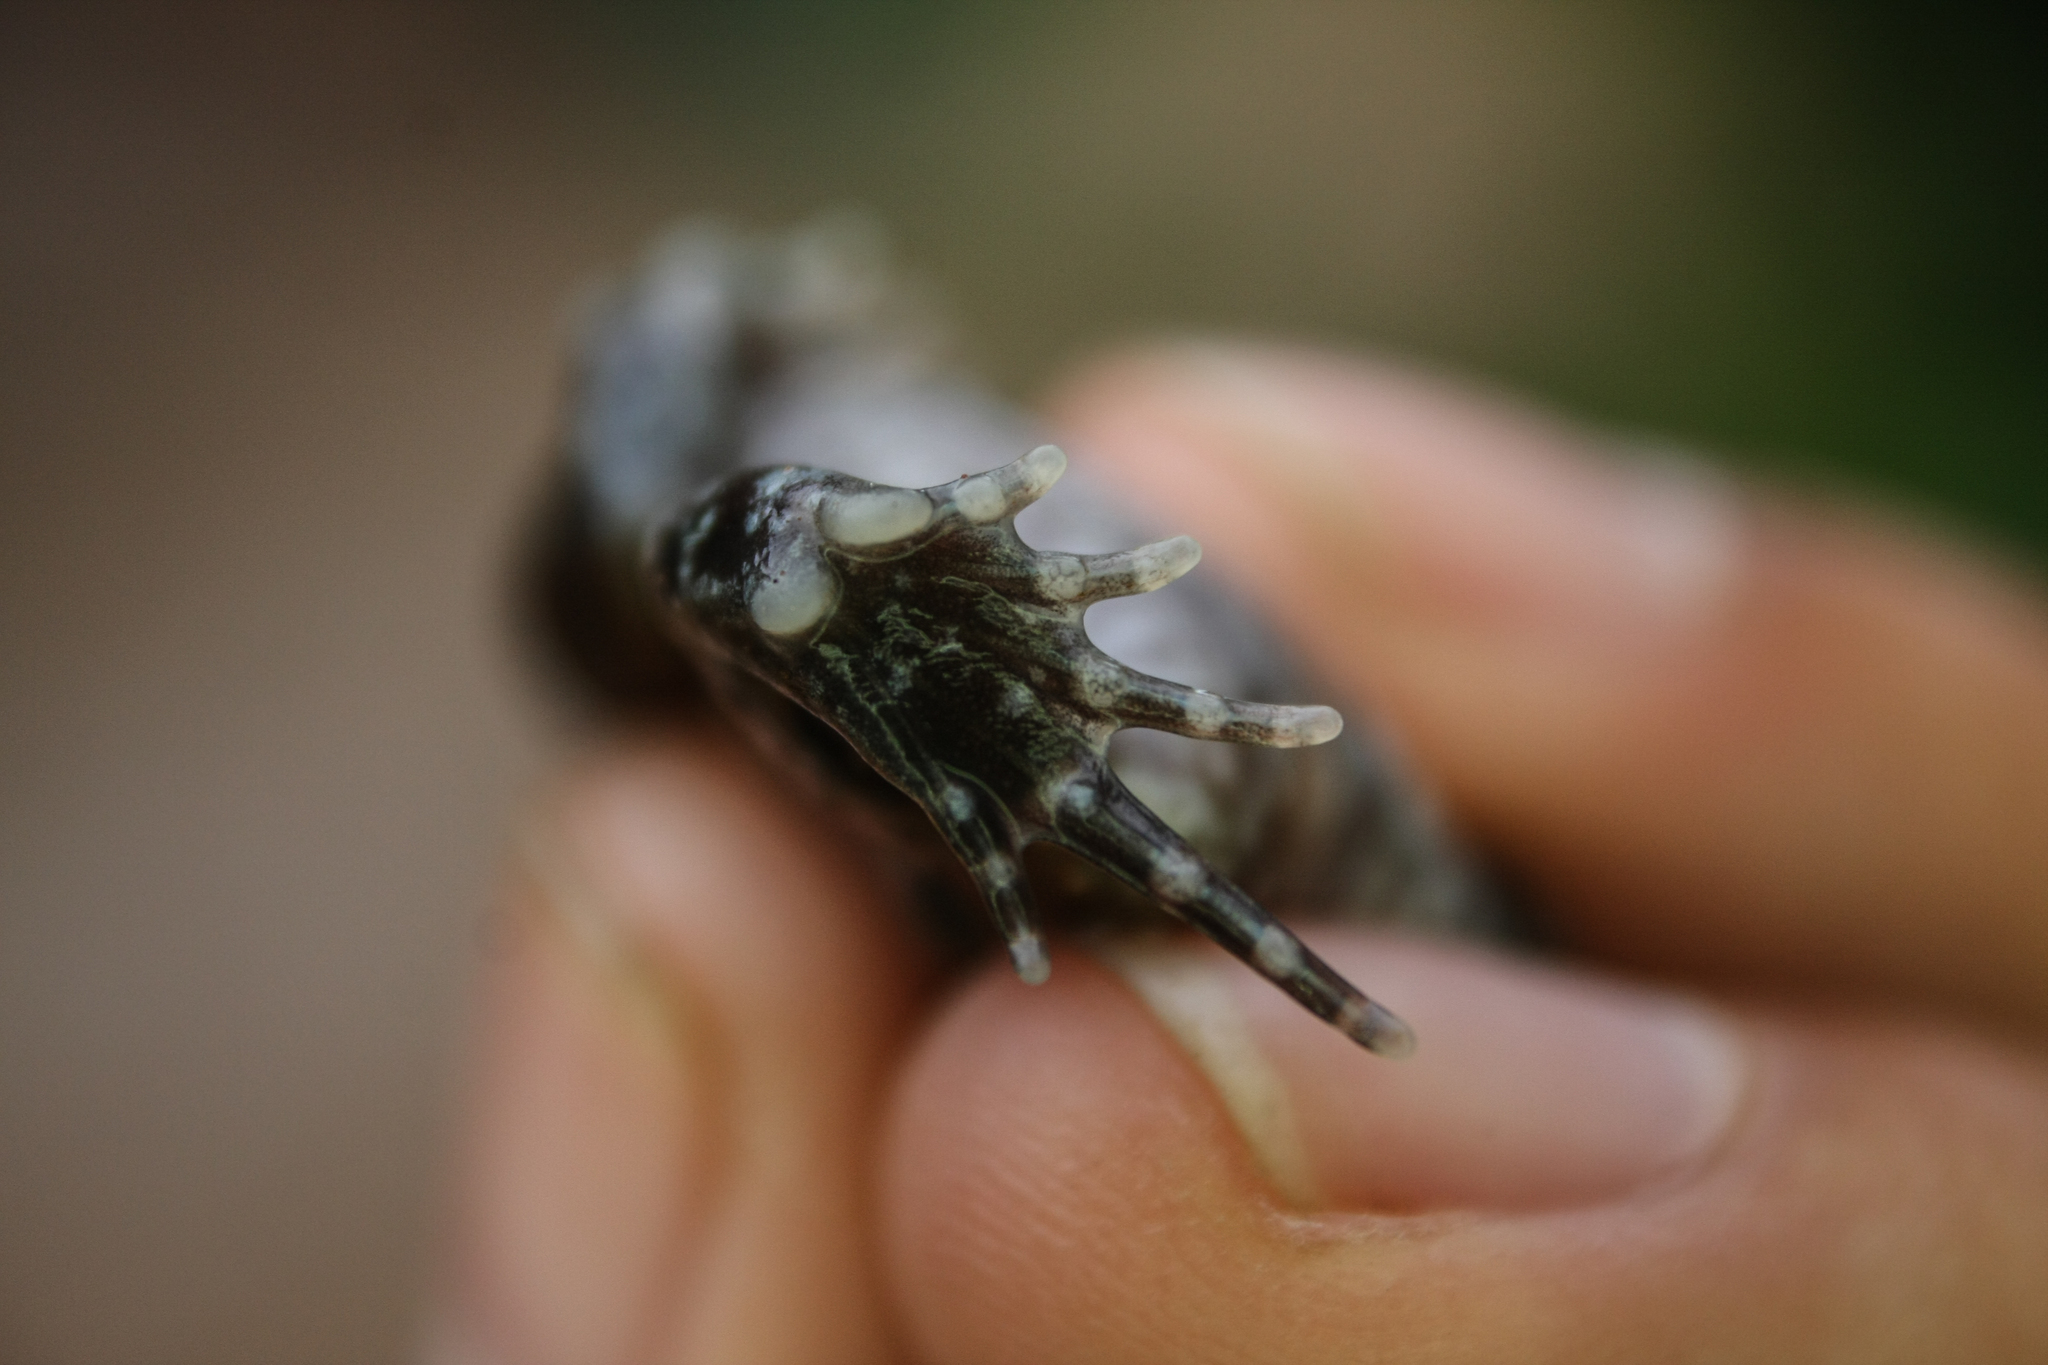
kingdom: Animalia
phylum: Chordata
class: Amphibia
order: Anura
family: Microhylidae
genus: Hypopachus
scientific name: Hypopachus variolosus
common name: Sheep frog
